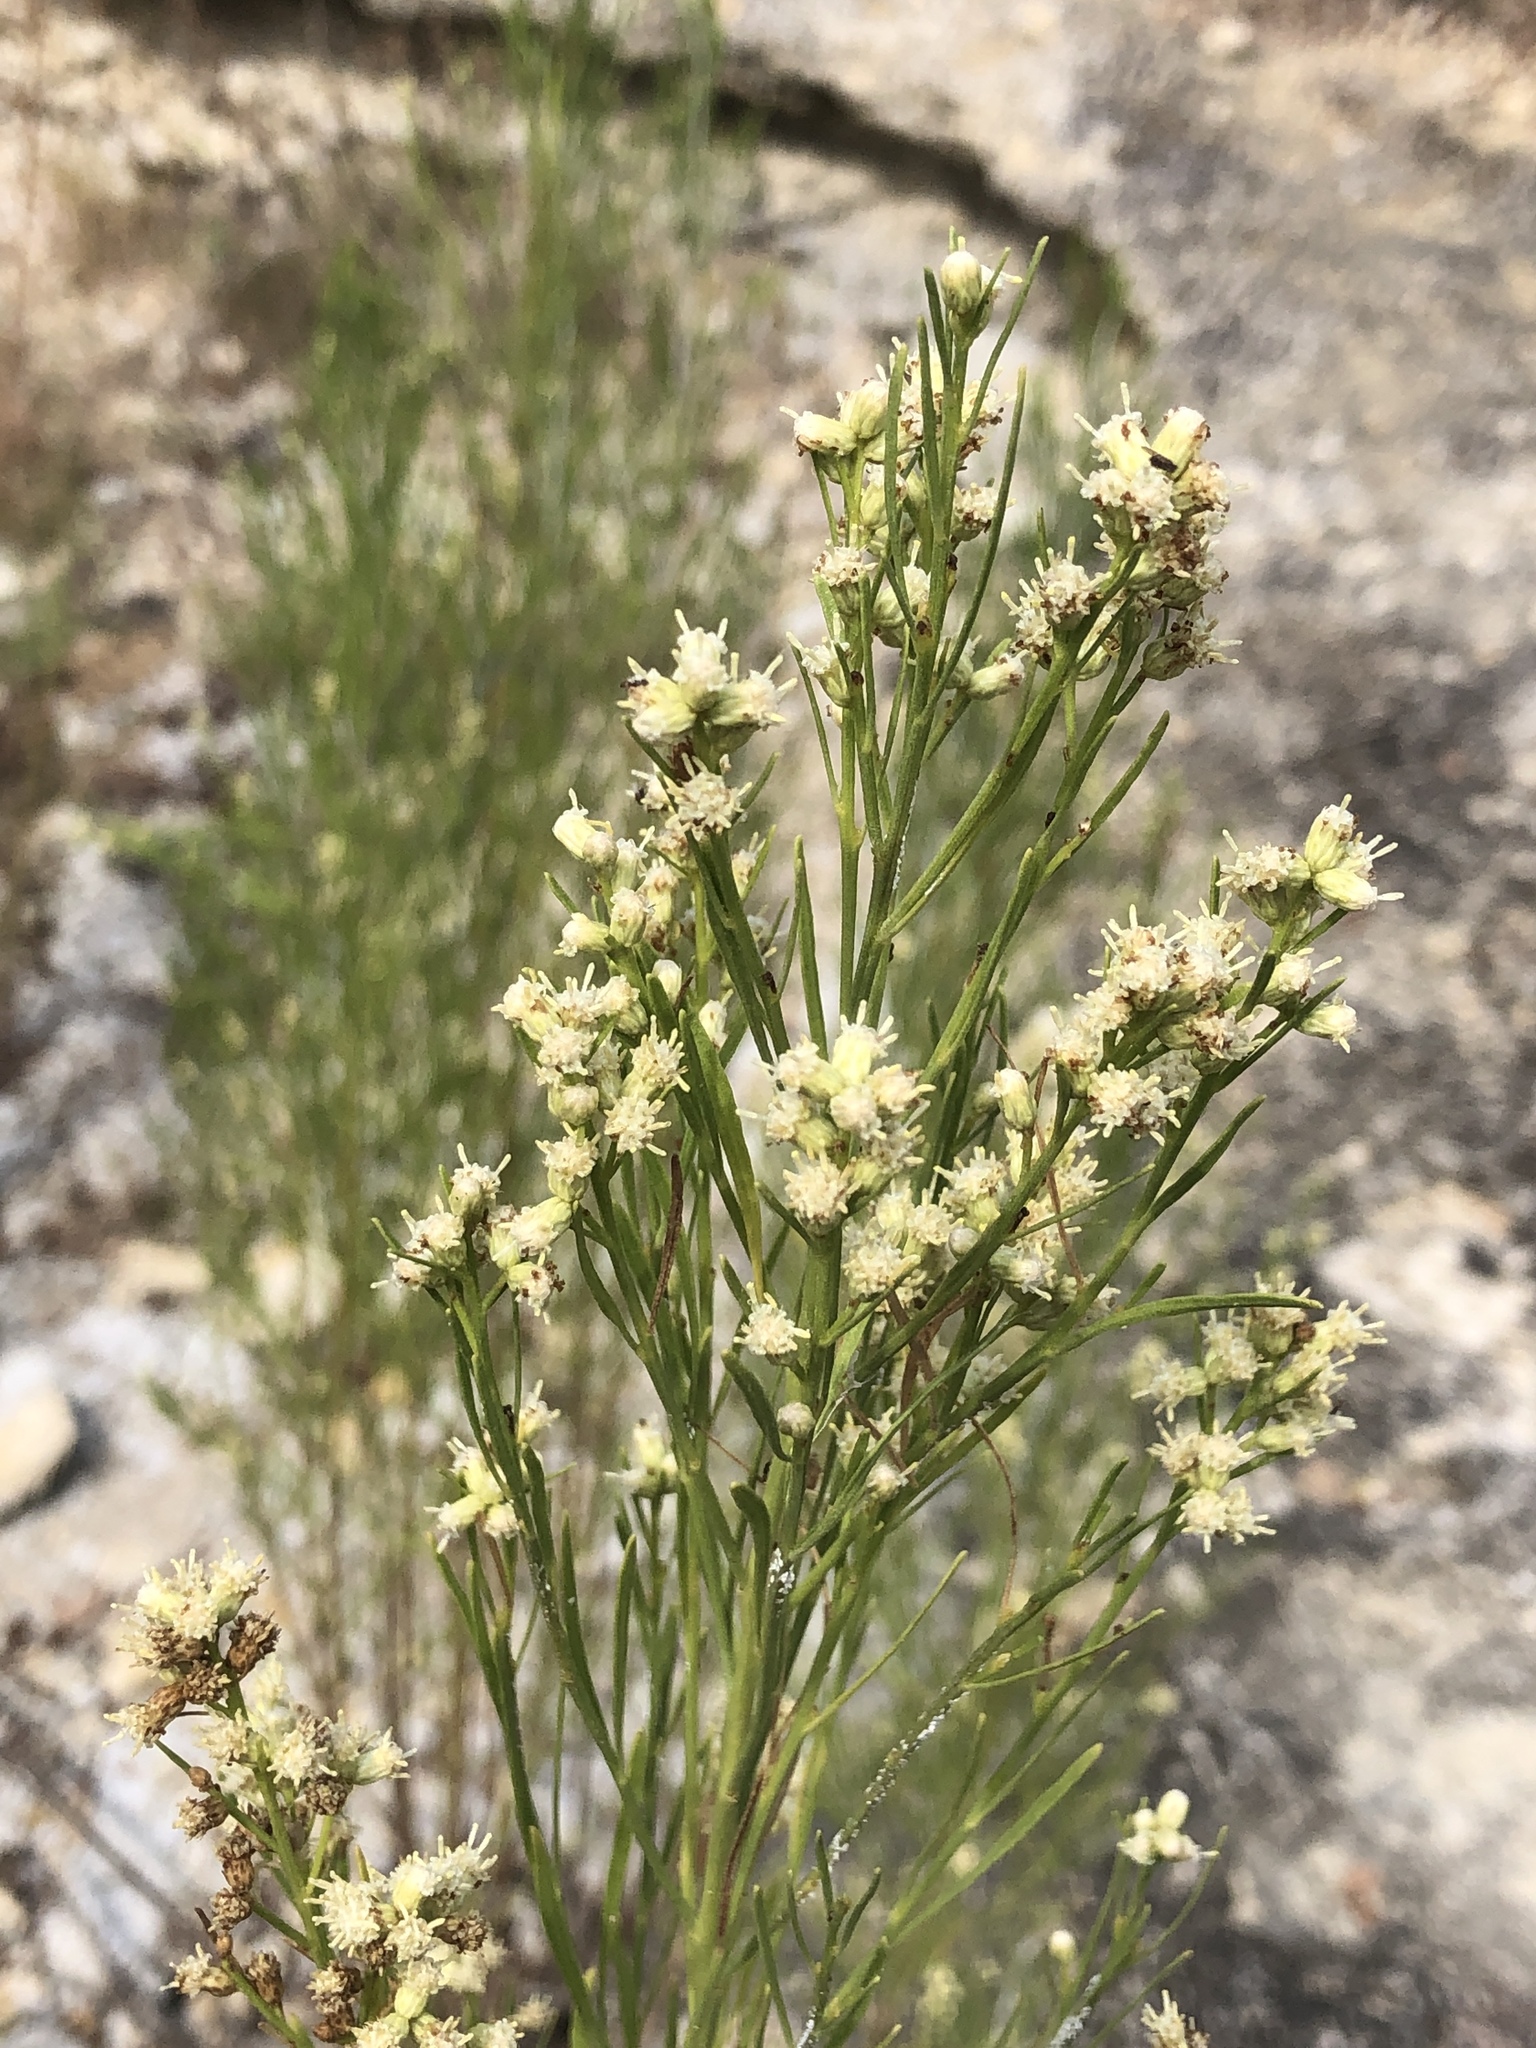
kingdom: Plantae
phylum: Tracheophyta
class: Magnoliopsida
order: Asterales
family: Asteraceae
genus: Baccharis
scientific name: Baccharis neglecta
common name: Roosevelt-weed
